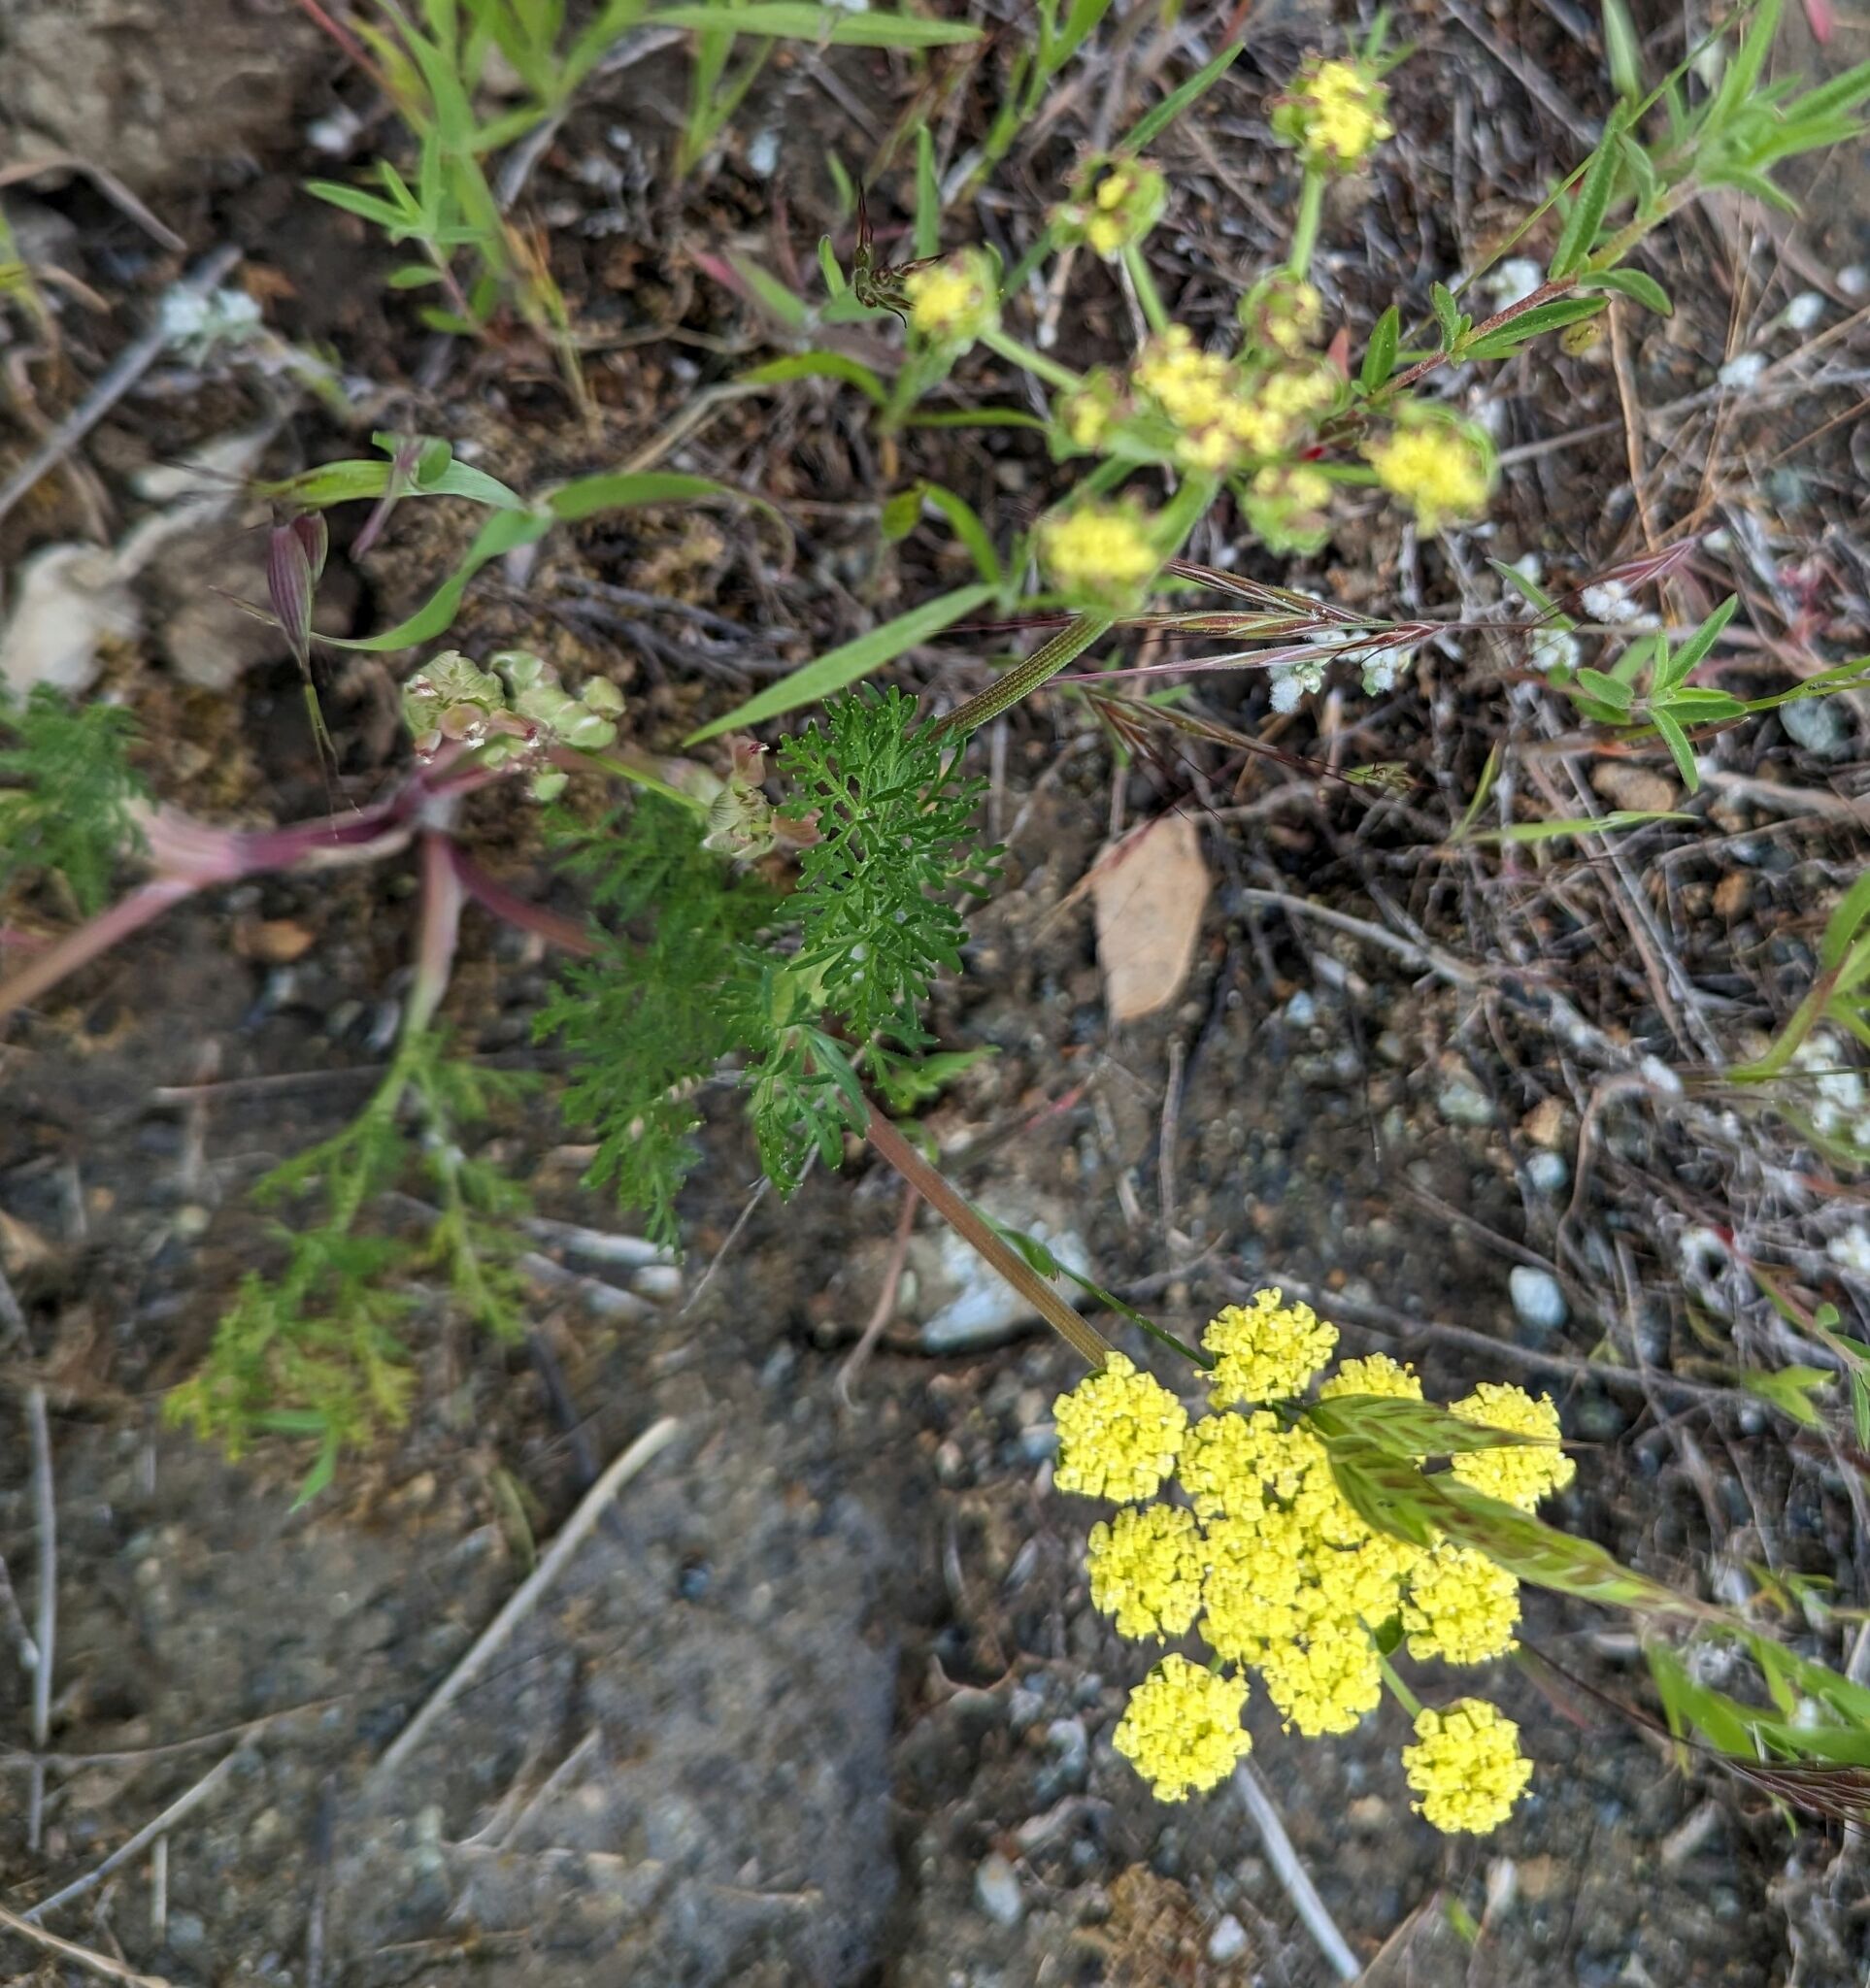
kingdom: Plantae
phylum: Tracheophyta
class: Magnoliopsida
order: Apiales
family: Apiaceae
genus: Lomatium
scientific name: Lomatium utriculatum
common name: Fine-leaf desert-parsley
